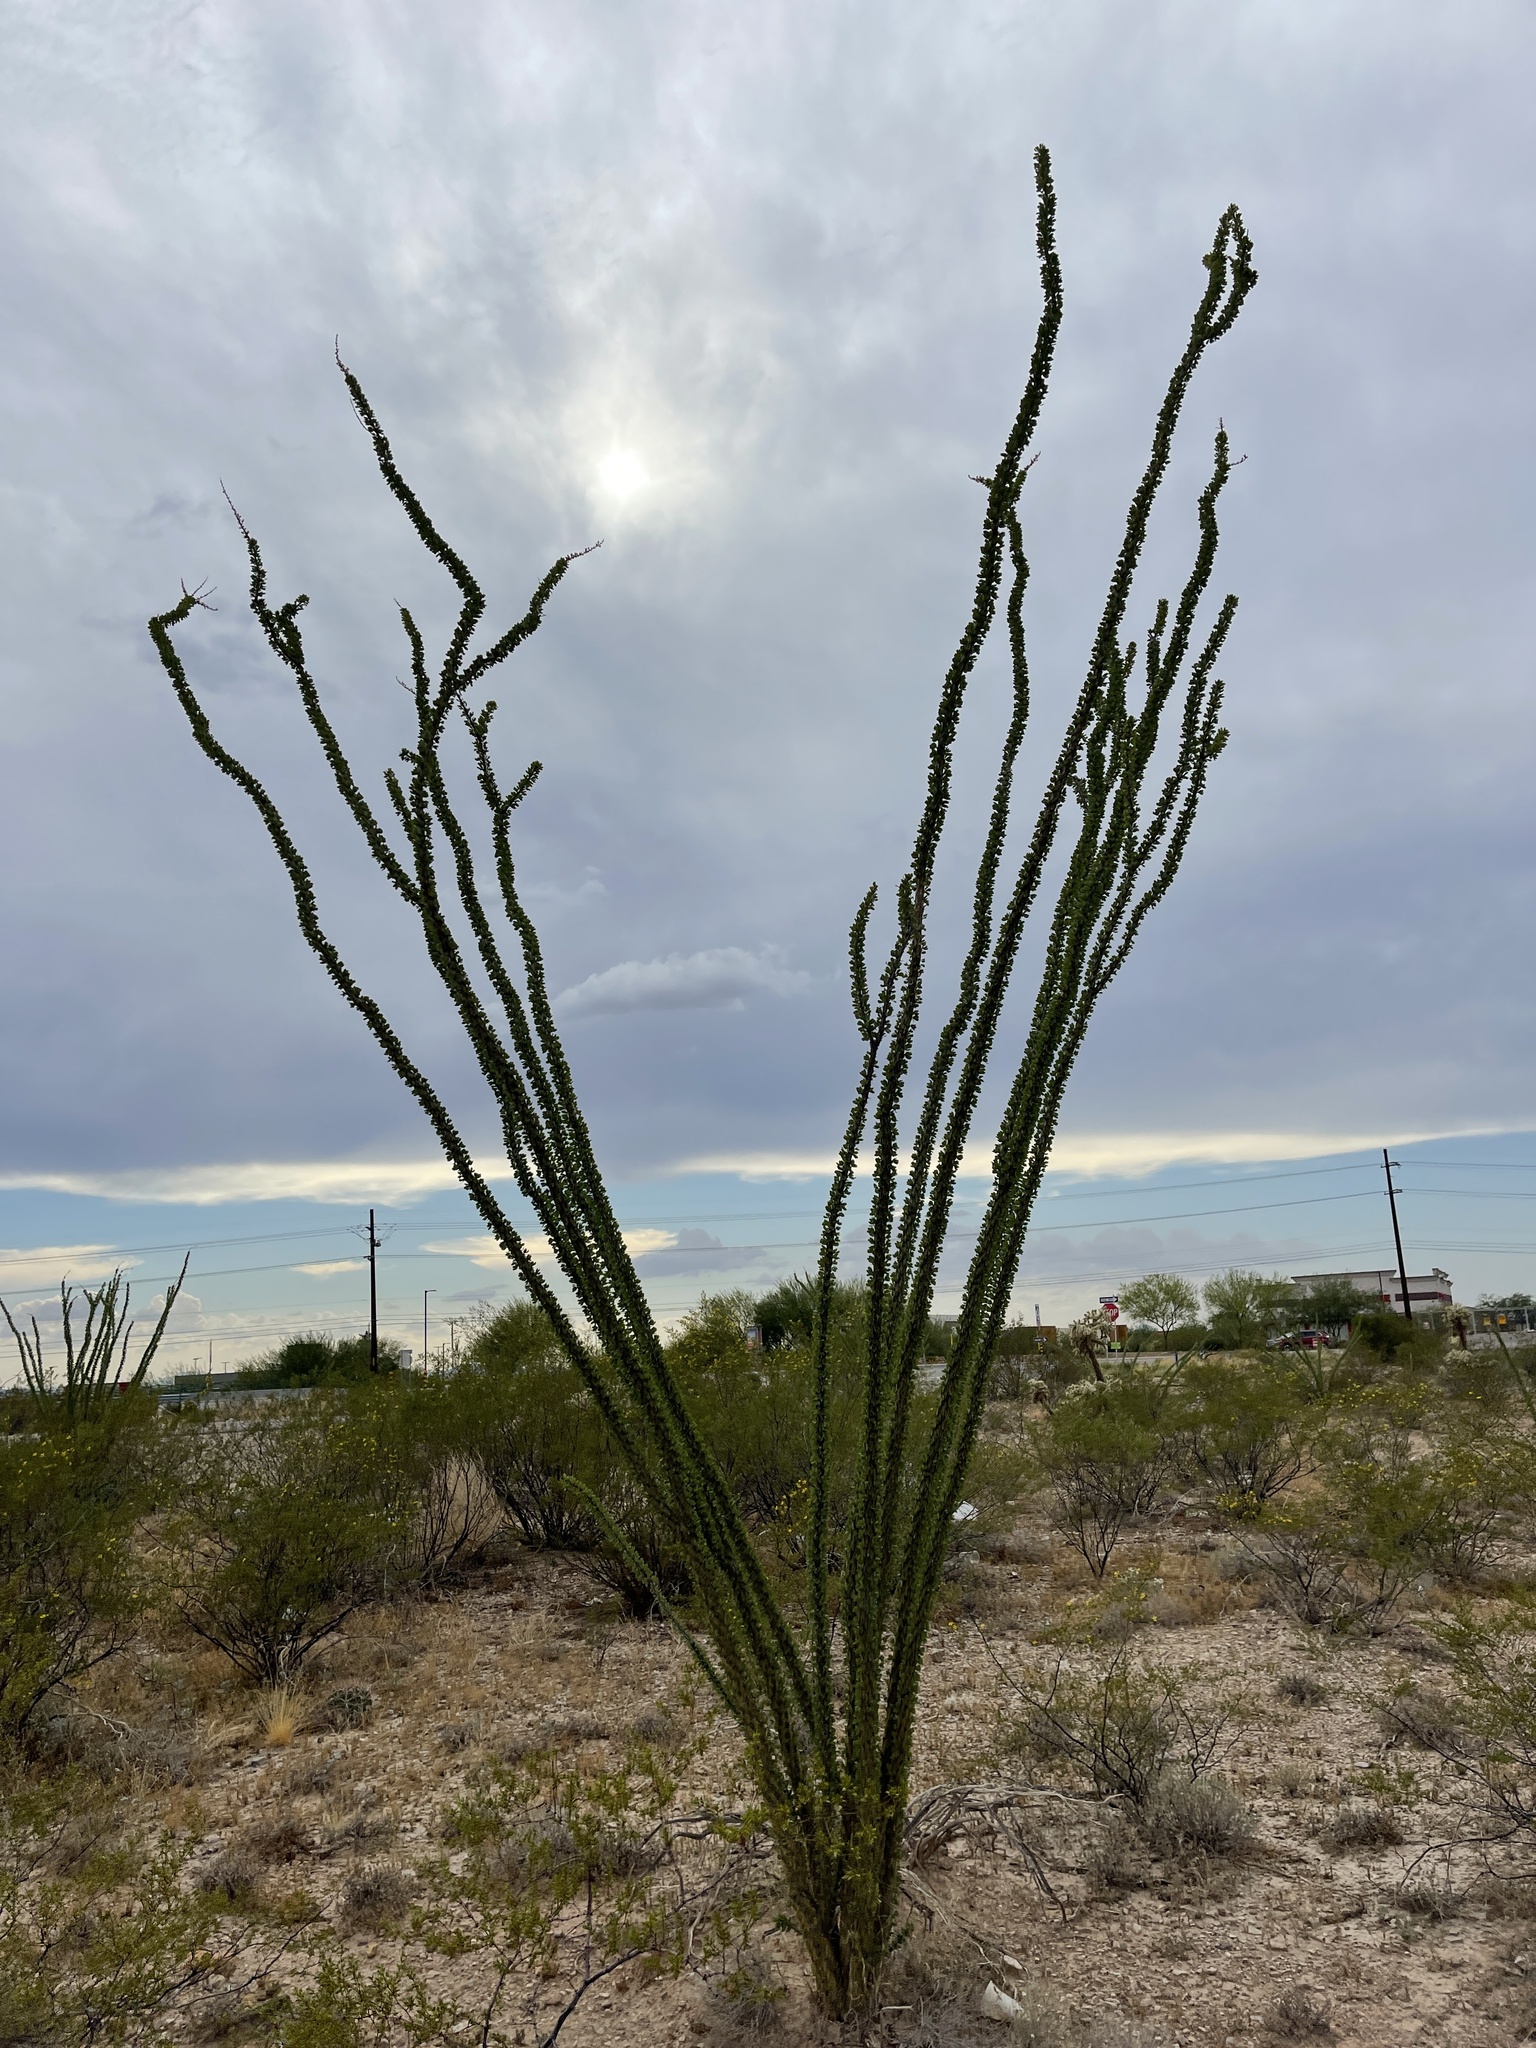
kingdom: Plantae
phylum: Tracheophyta
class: Magnoliopsida
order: Ericales
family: Fouquieriaceae
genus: Fouquieria
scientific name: Fouquieria splendens
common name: Vine-cactus
